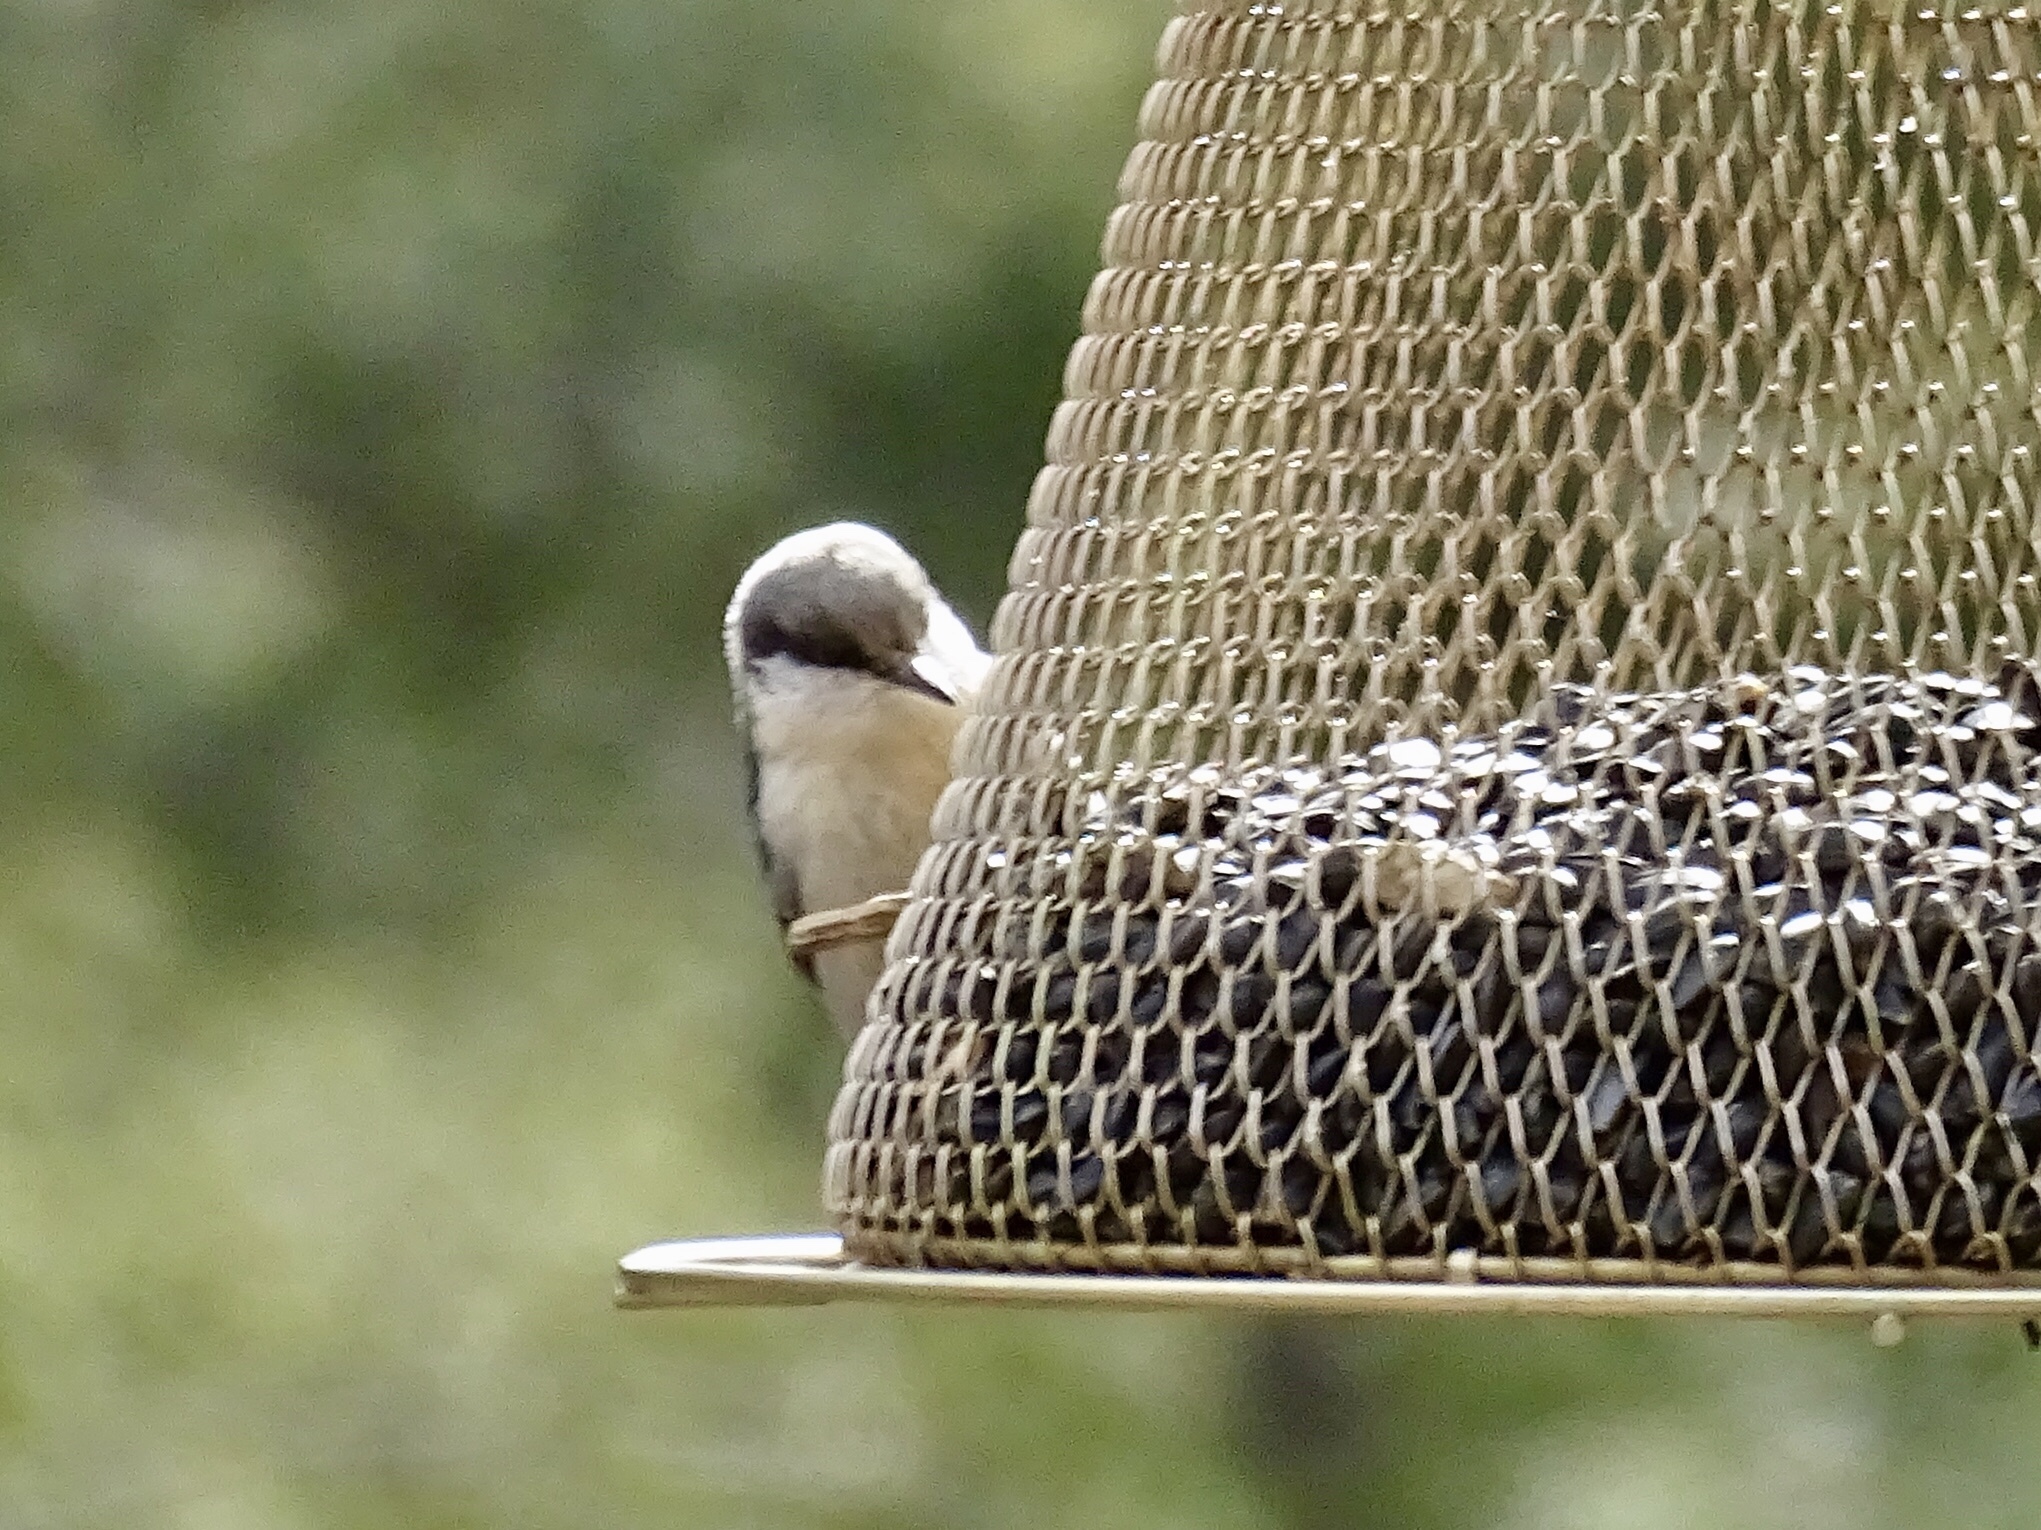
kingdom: Animalia
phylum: Chordata
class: Aves
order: Passeriformes
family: Sittidae
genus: Sitta
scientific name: Sitta pygmaea
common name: Pygmy nuthatch
